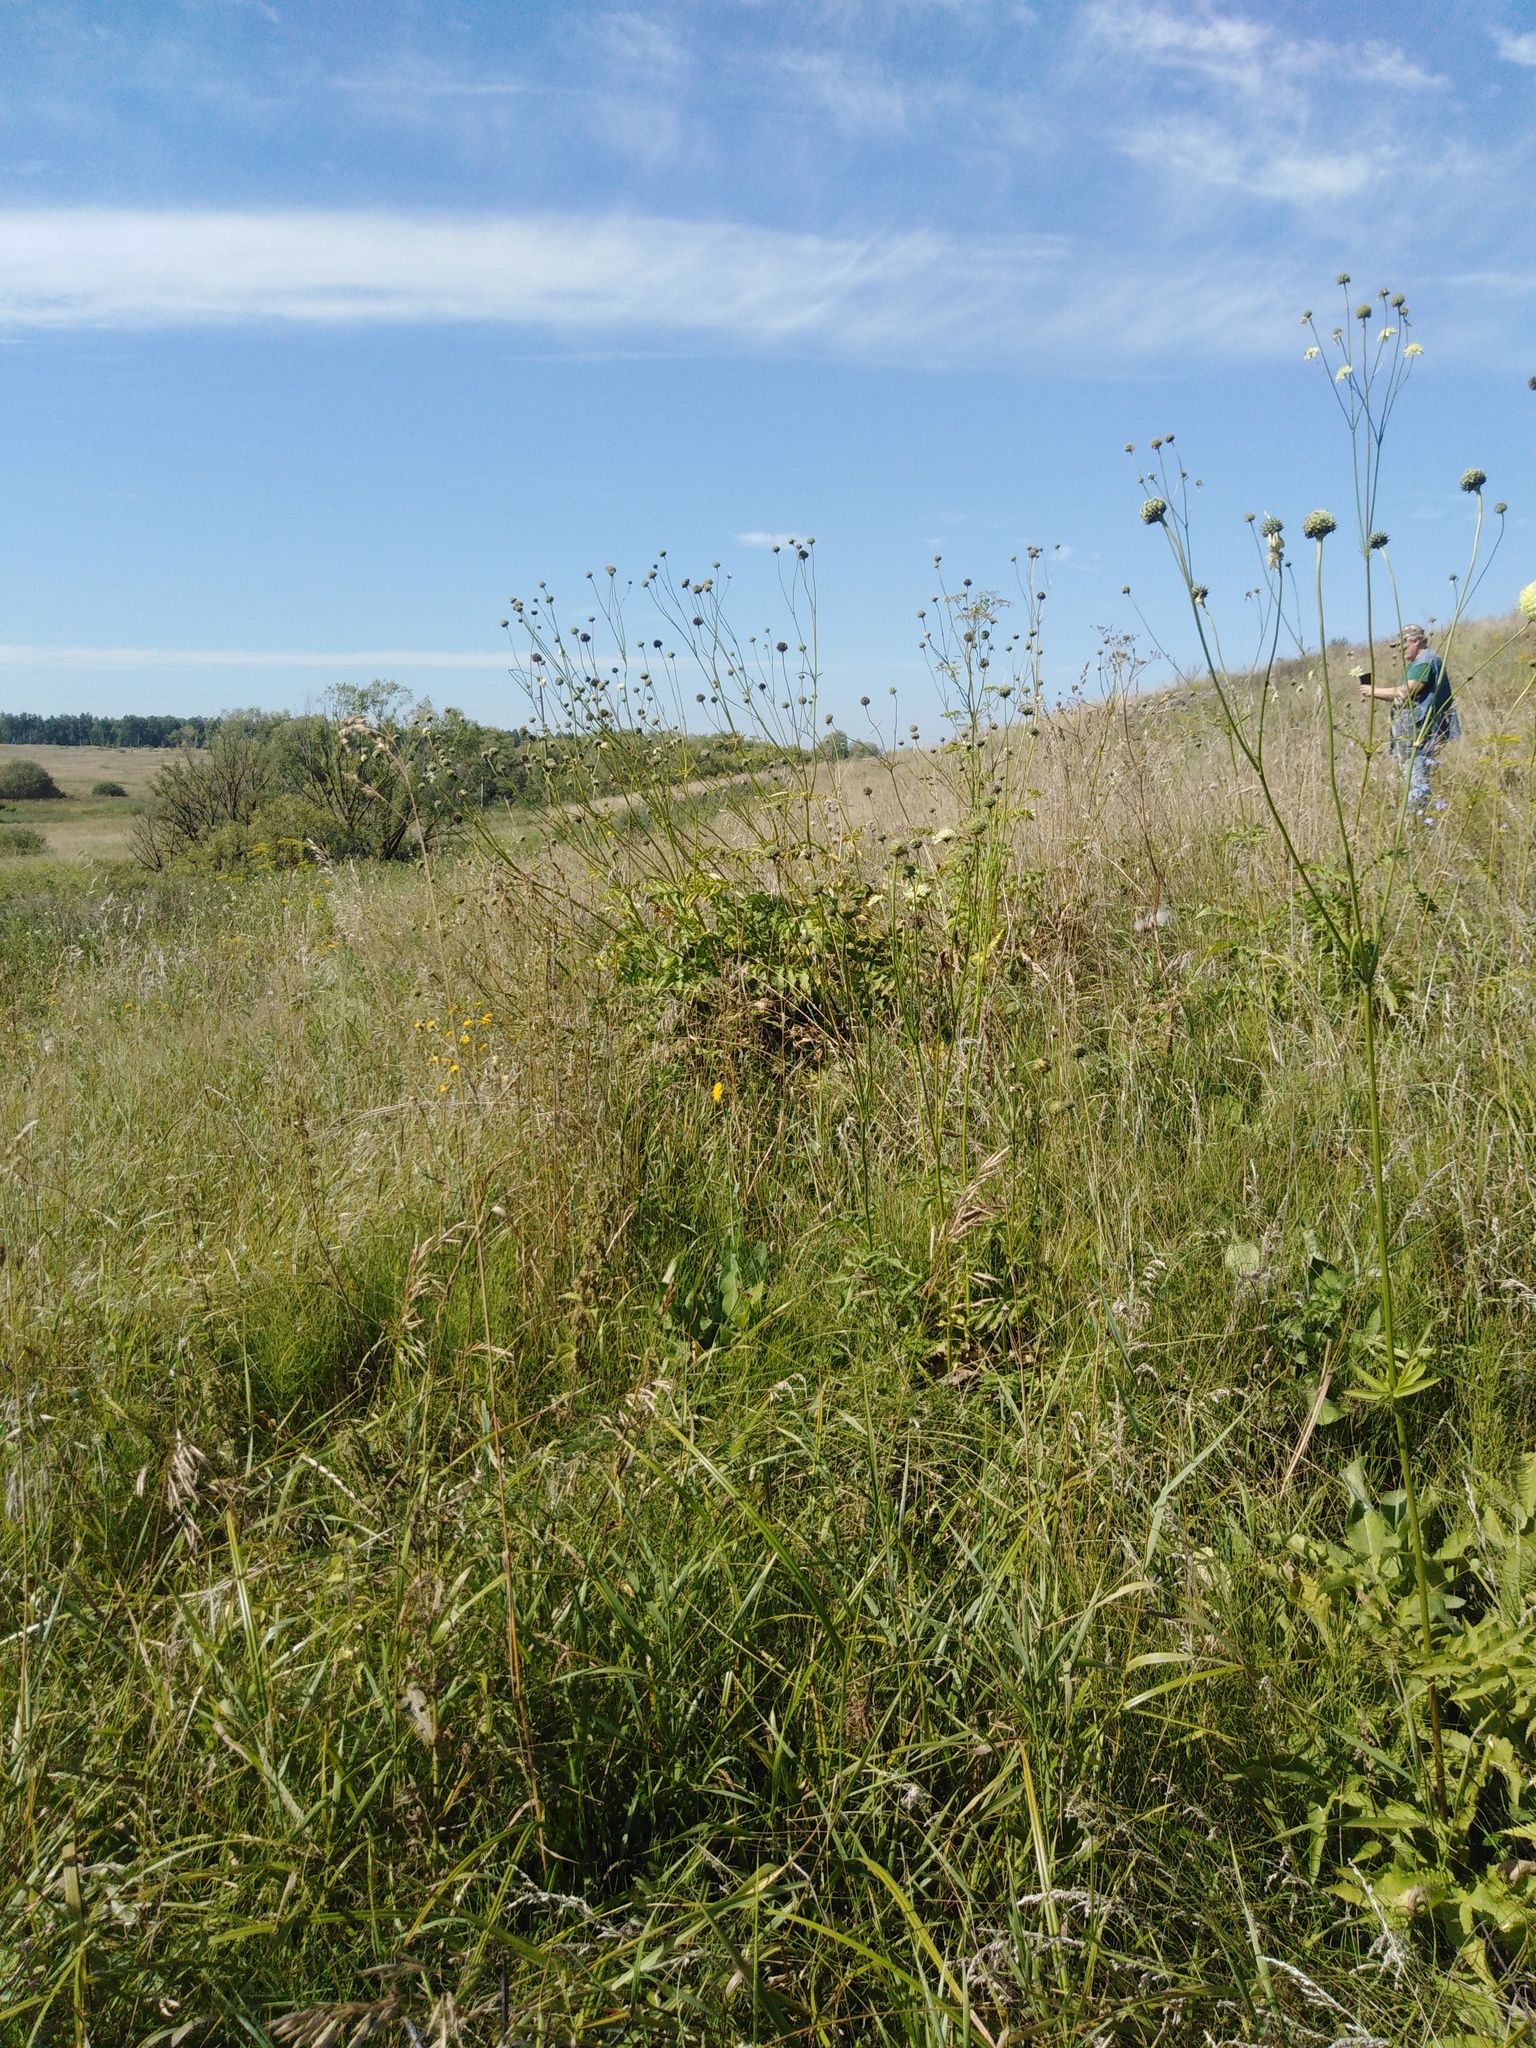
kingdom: Plantae
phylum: Tracheophyta
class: Magnoliopsida
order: Dipsacales
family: Caprifoliaceae
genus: Cephalaria
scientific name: Cephalaria litvinovii
